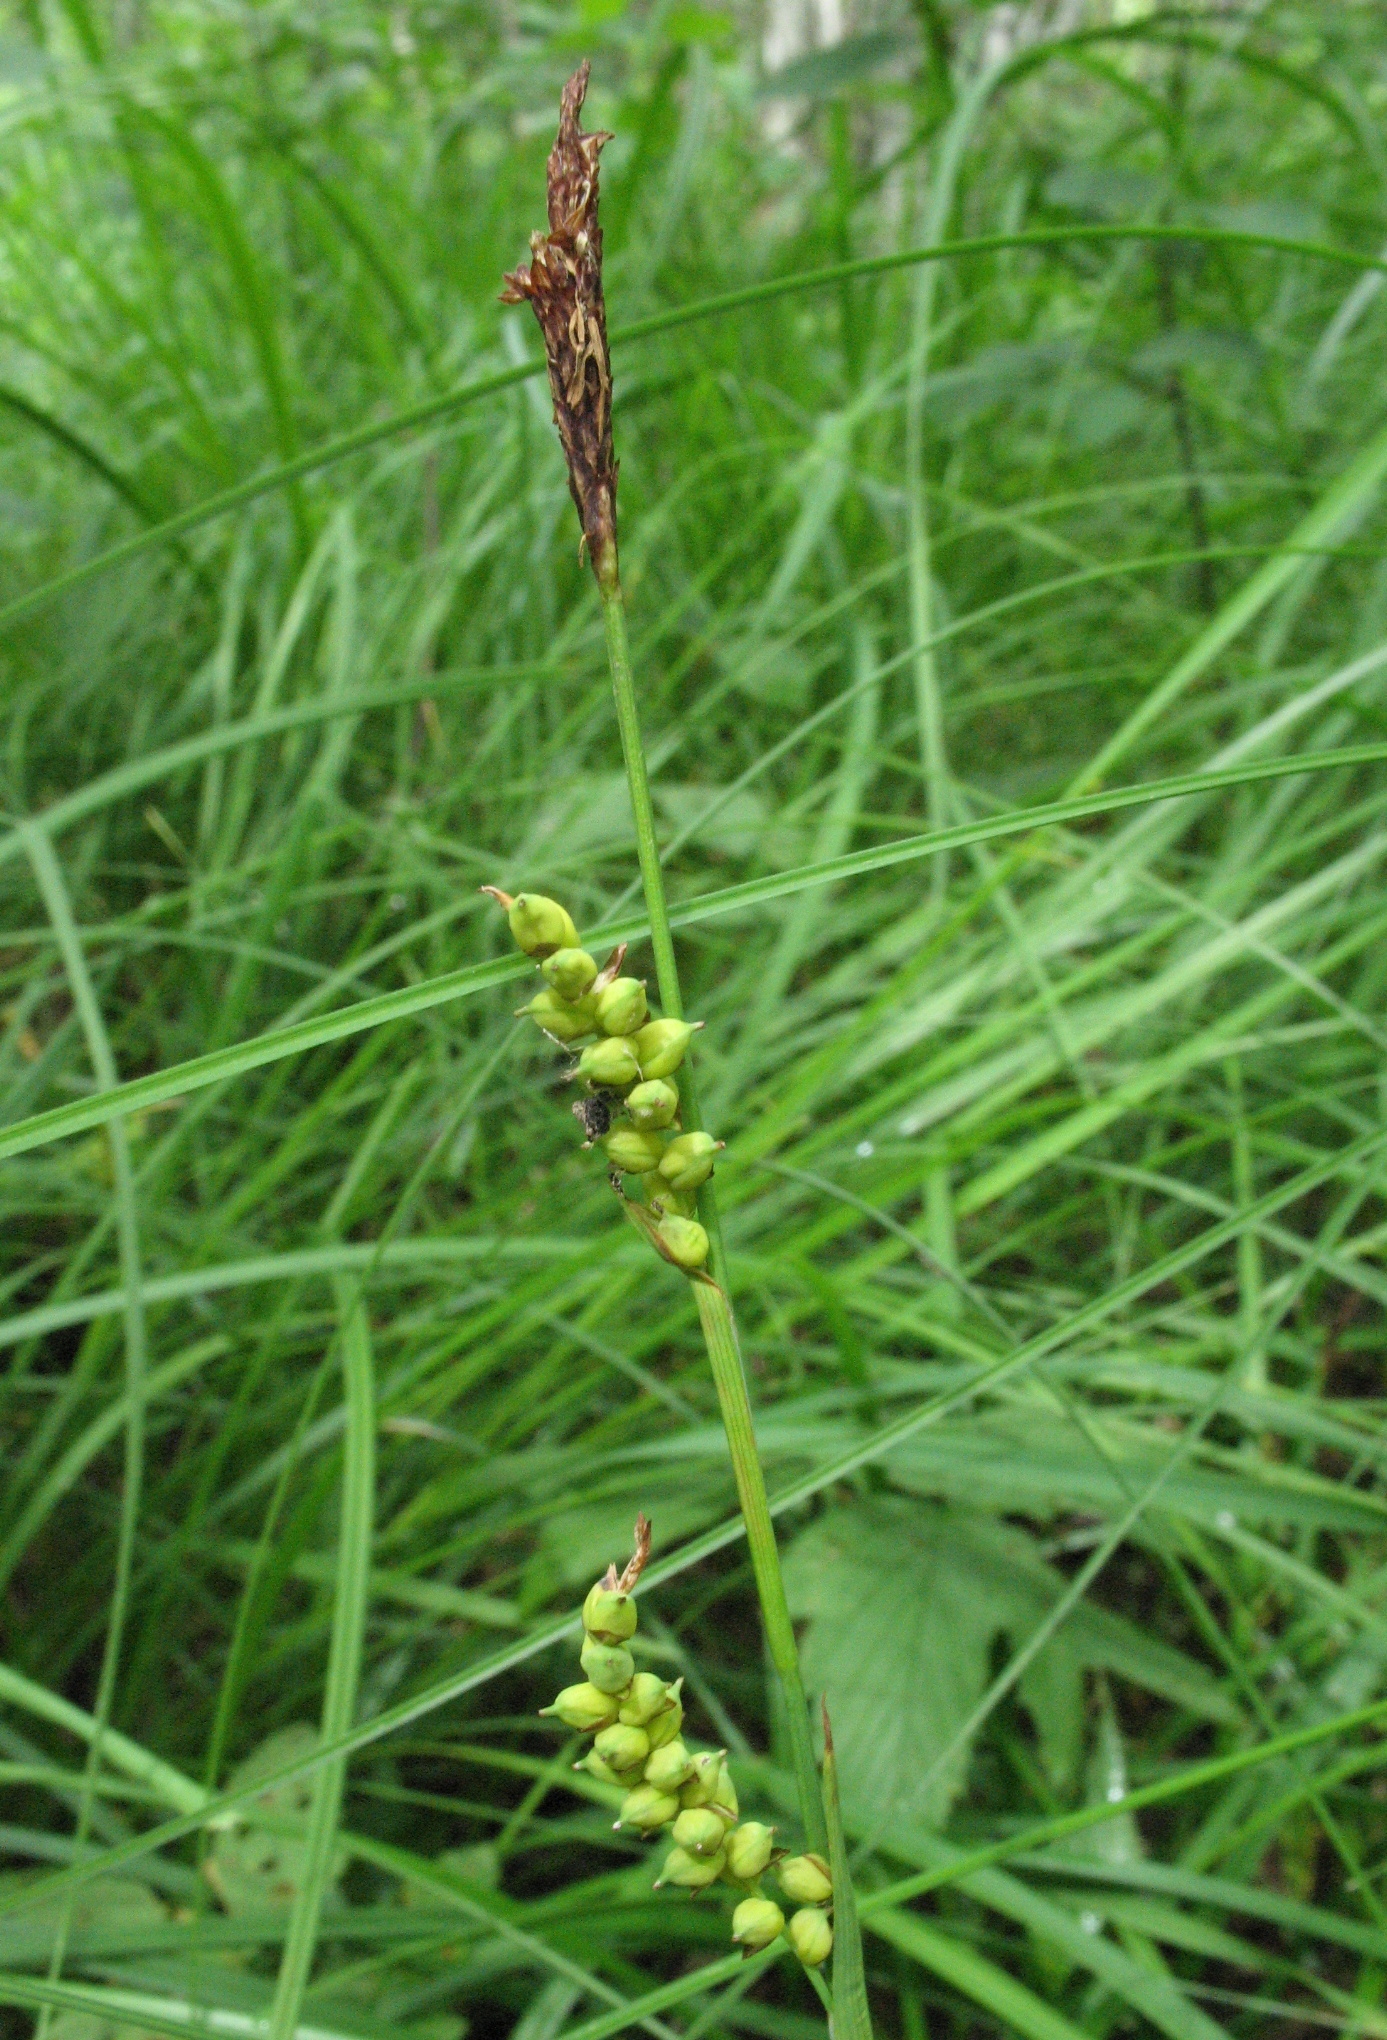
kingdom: Plantae
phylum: Tracheophyta
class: Liliopsida
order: Poales
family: Cyperaceae
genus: Carex
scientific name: Carex vaginata
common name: Sheathed sedge
